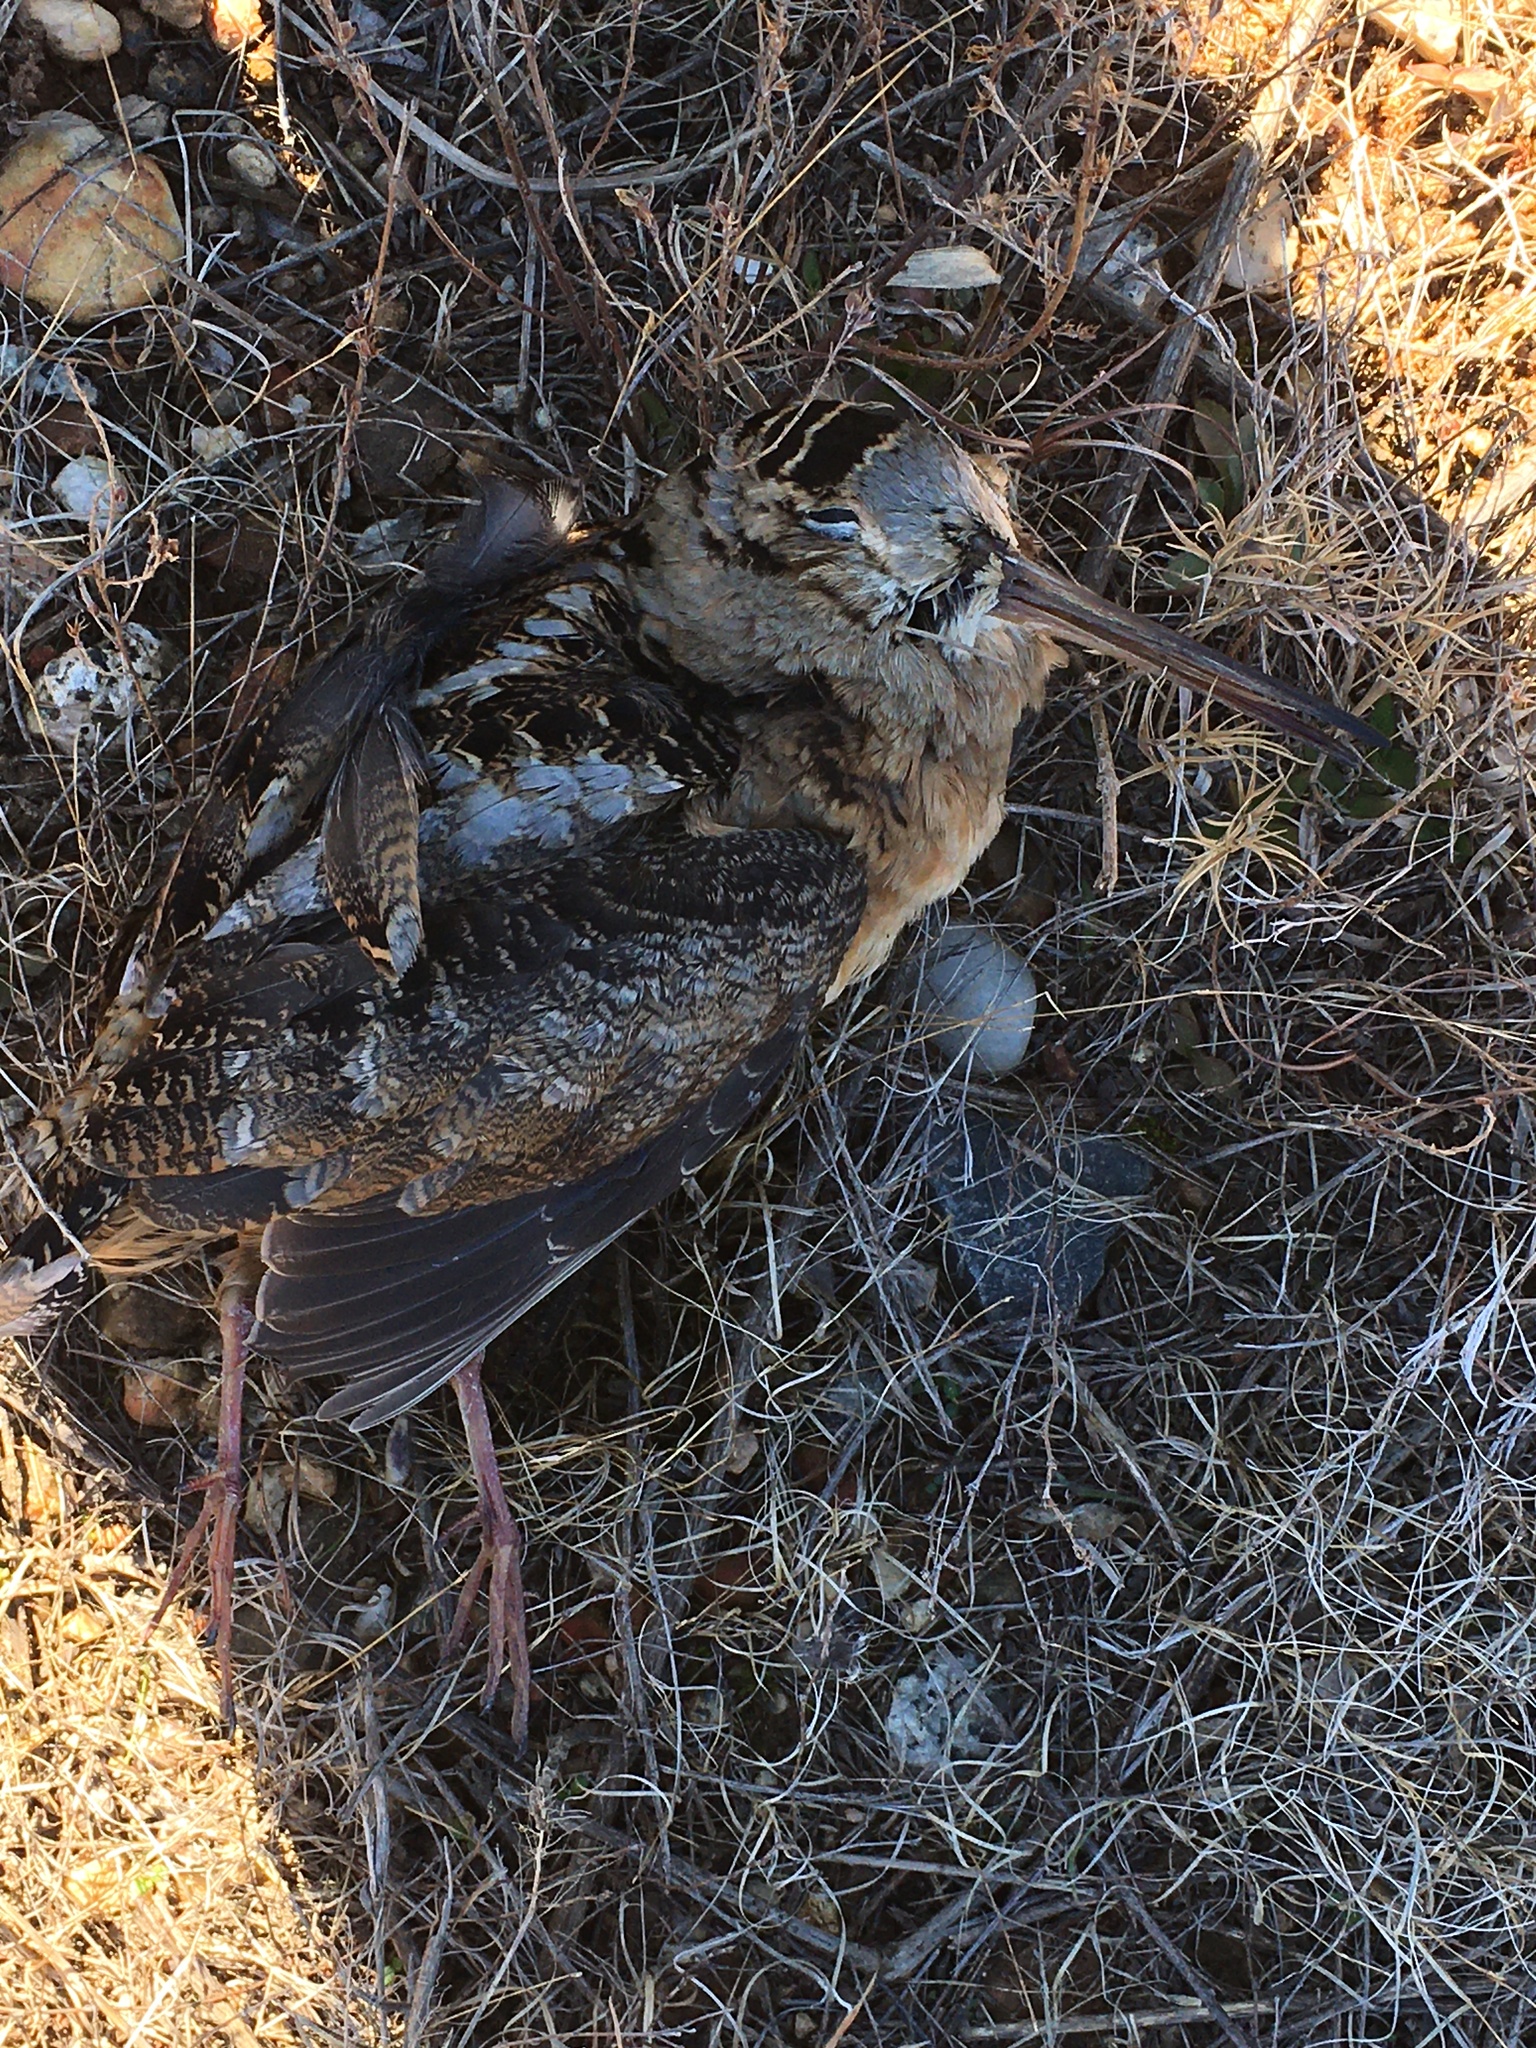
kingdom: Animalia
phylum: Chordata
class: Aves
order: Charadriiformes
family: Scolopacidae
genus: Scolopax
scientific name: Scolopax minor
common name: American woodcock
